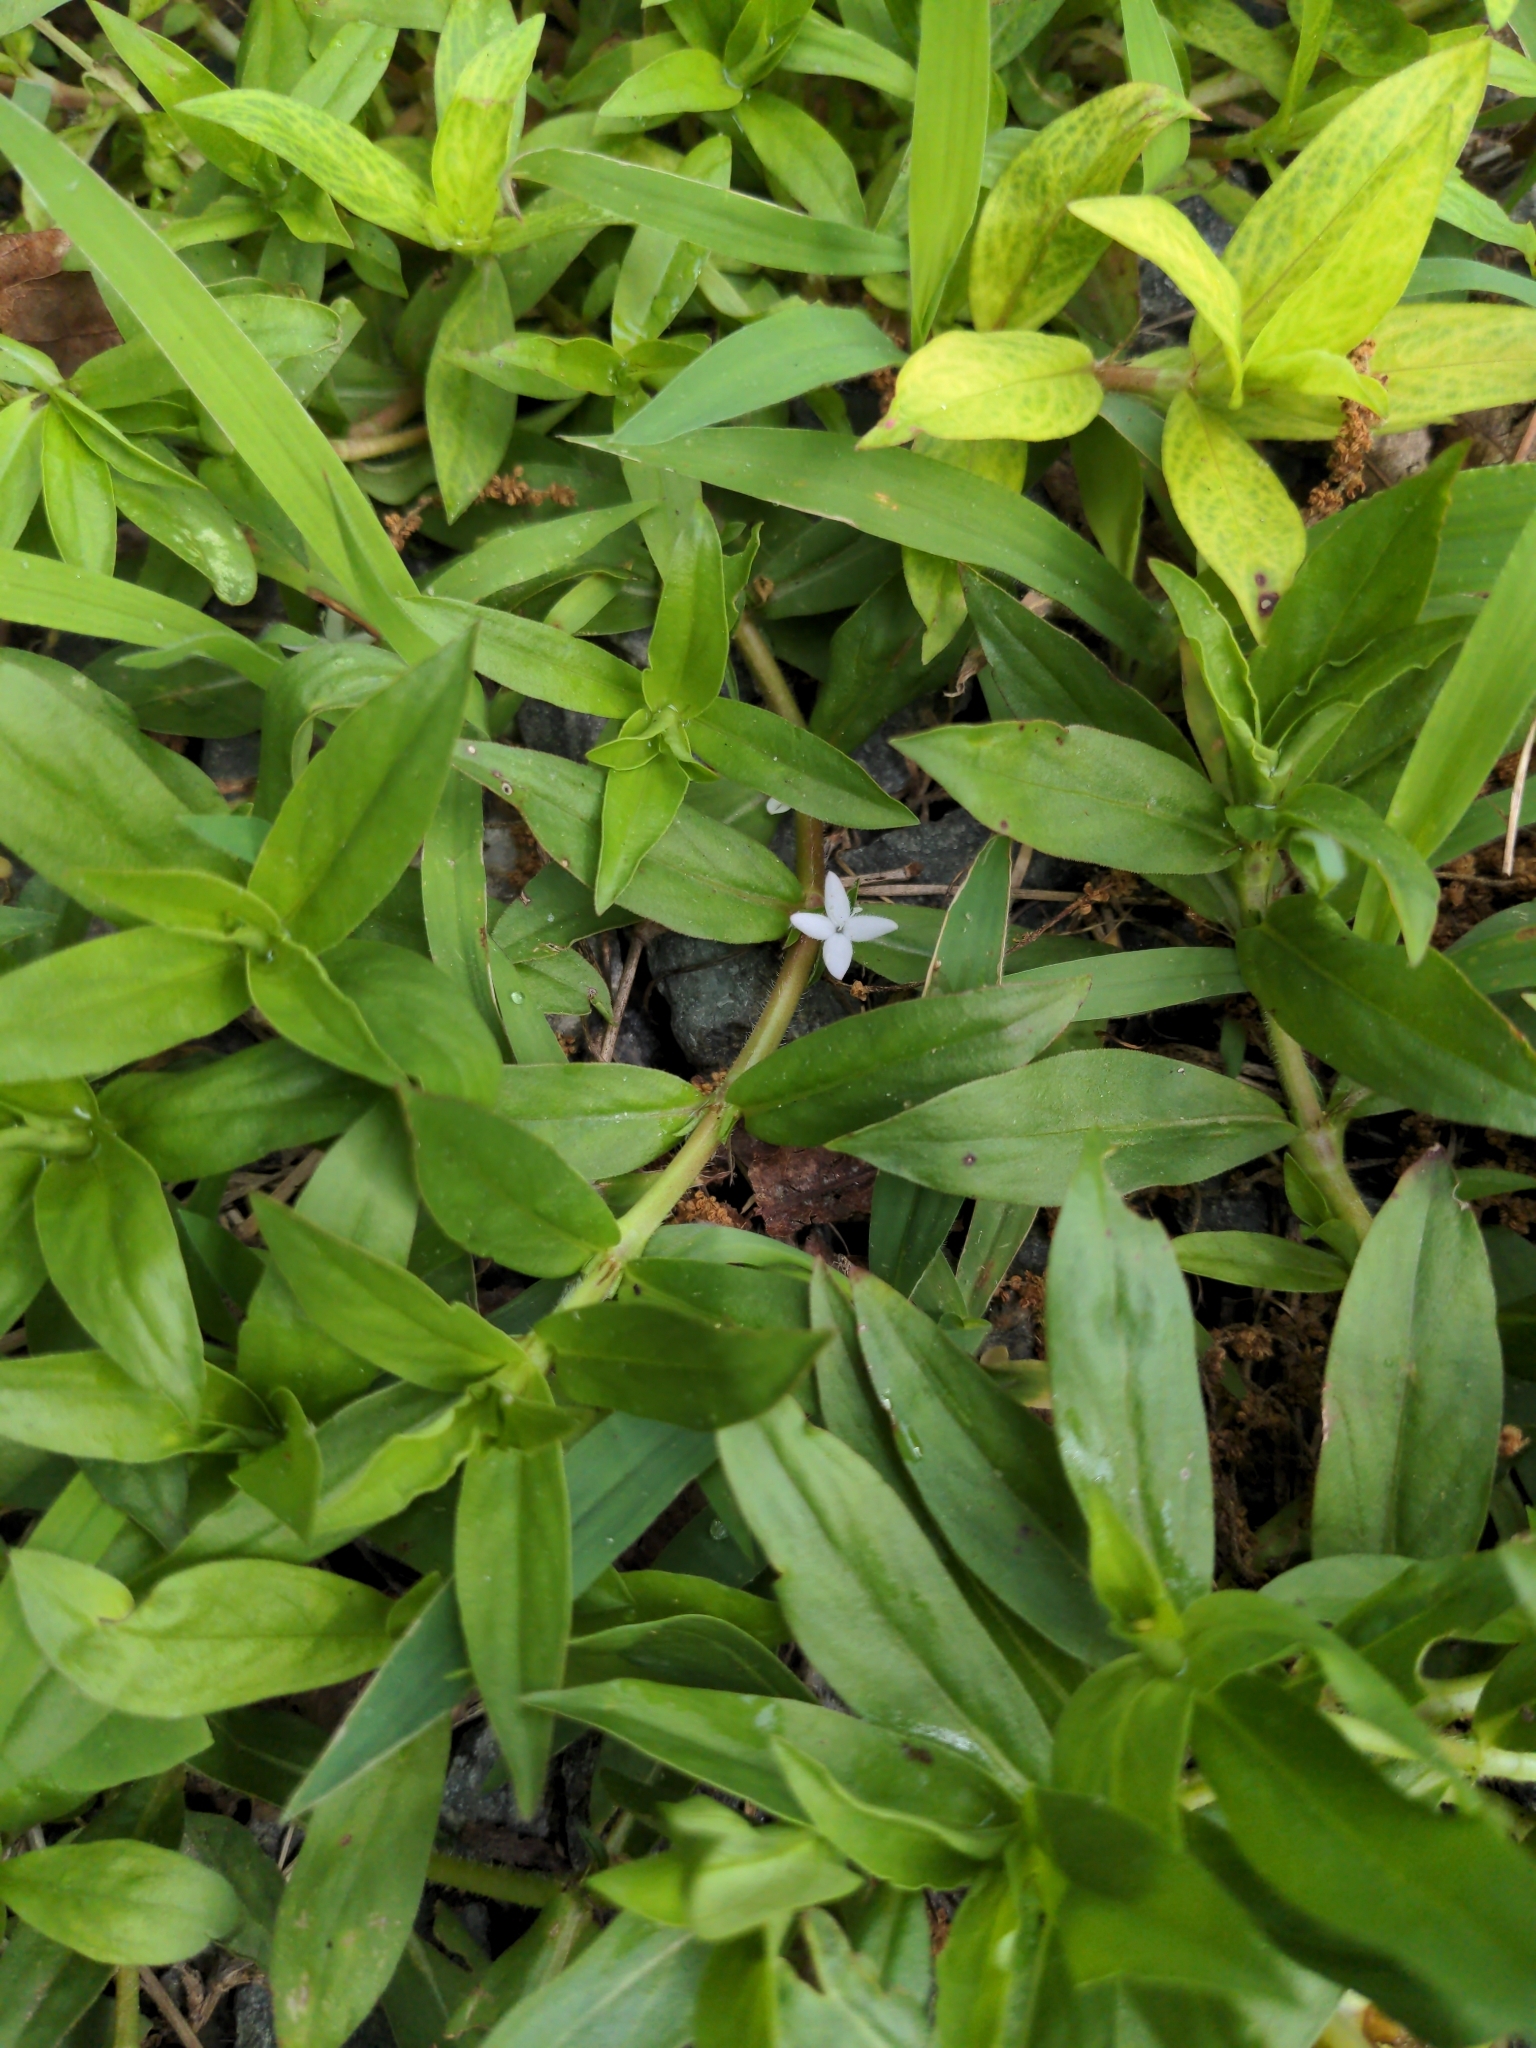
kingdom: Plantae
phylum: Tracheophyta
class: Magnoliopsida
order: Gentianales
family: Rubiaceae
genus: Diodia
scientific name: Diodia virginiana
